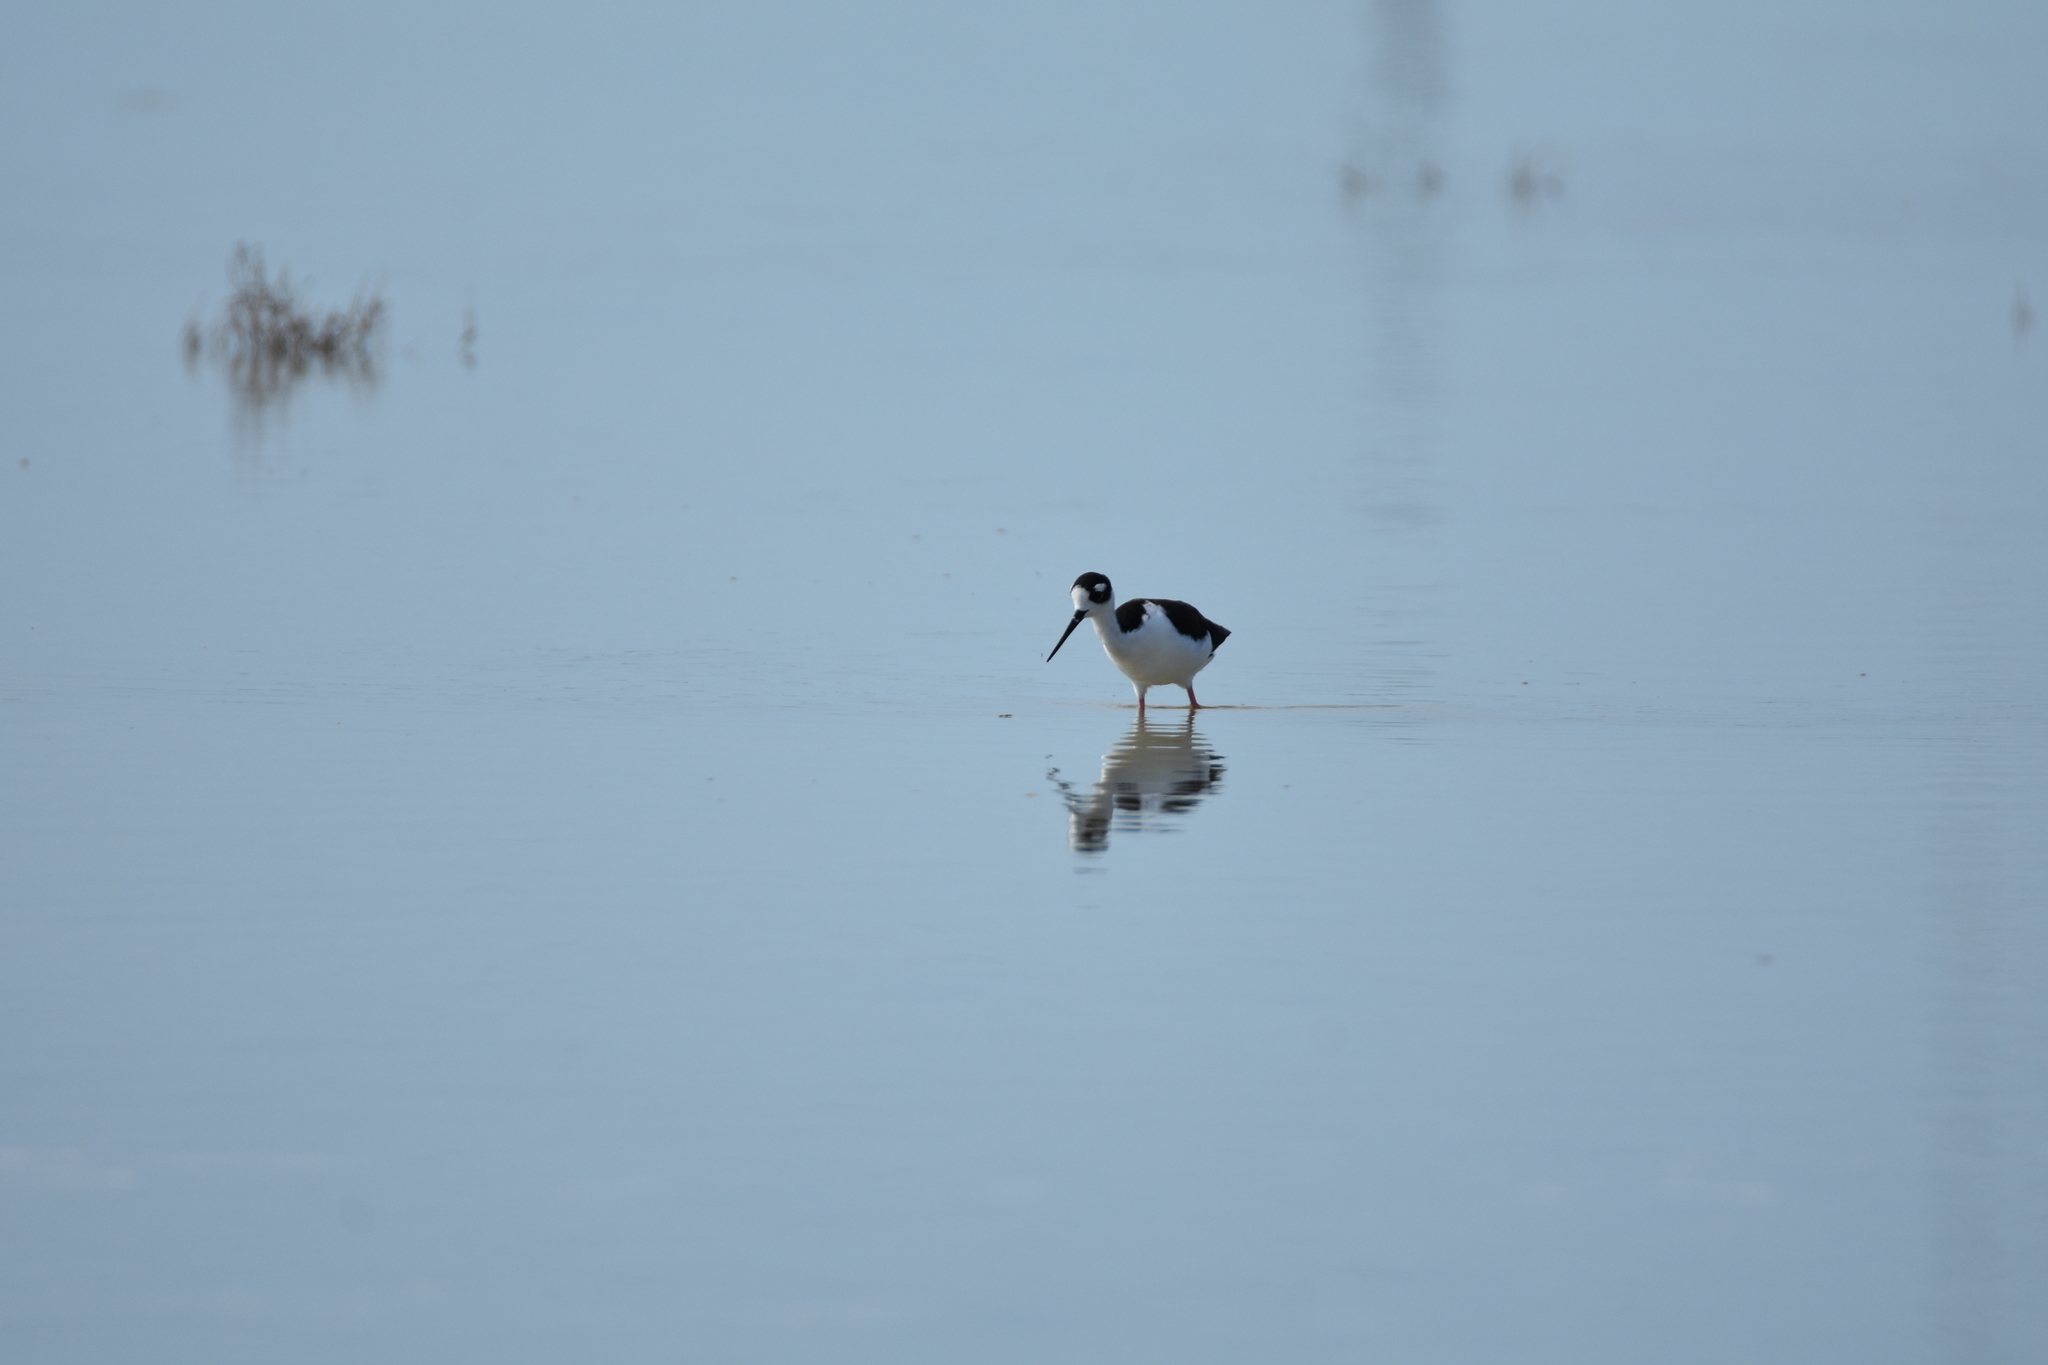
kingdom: Animalia
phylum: Chordata
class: Aves
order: Charadriiformes
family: Recurvirostridae
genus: Himantopus
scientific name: Himantopus mexicanus
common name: Black-necked stilt
